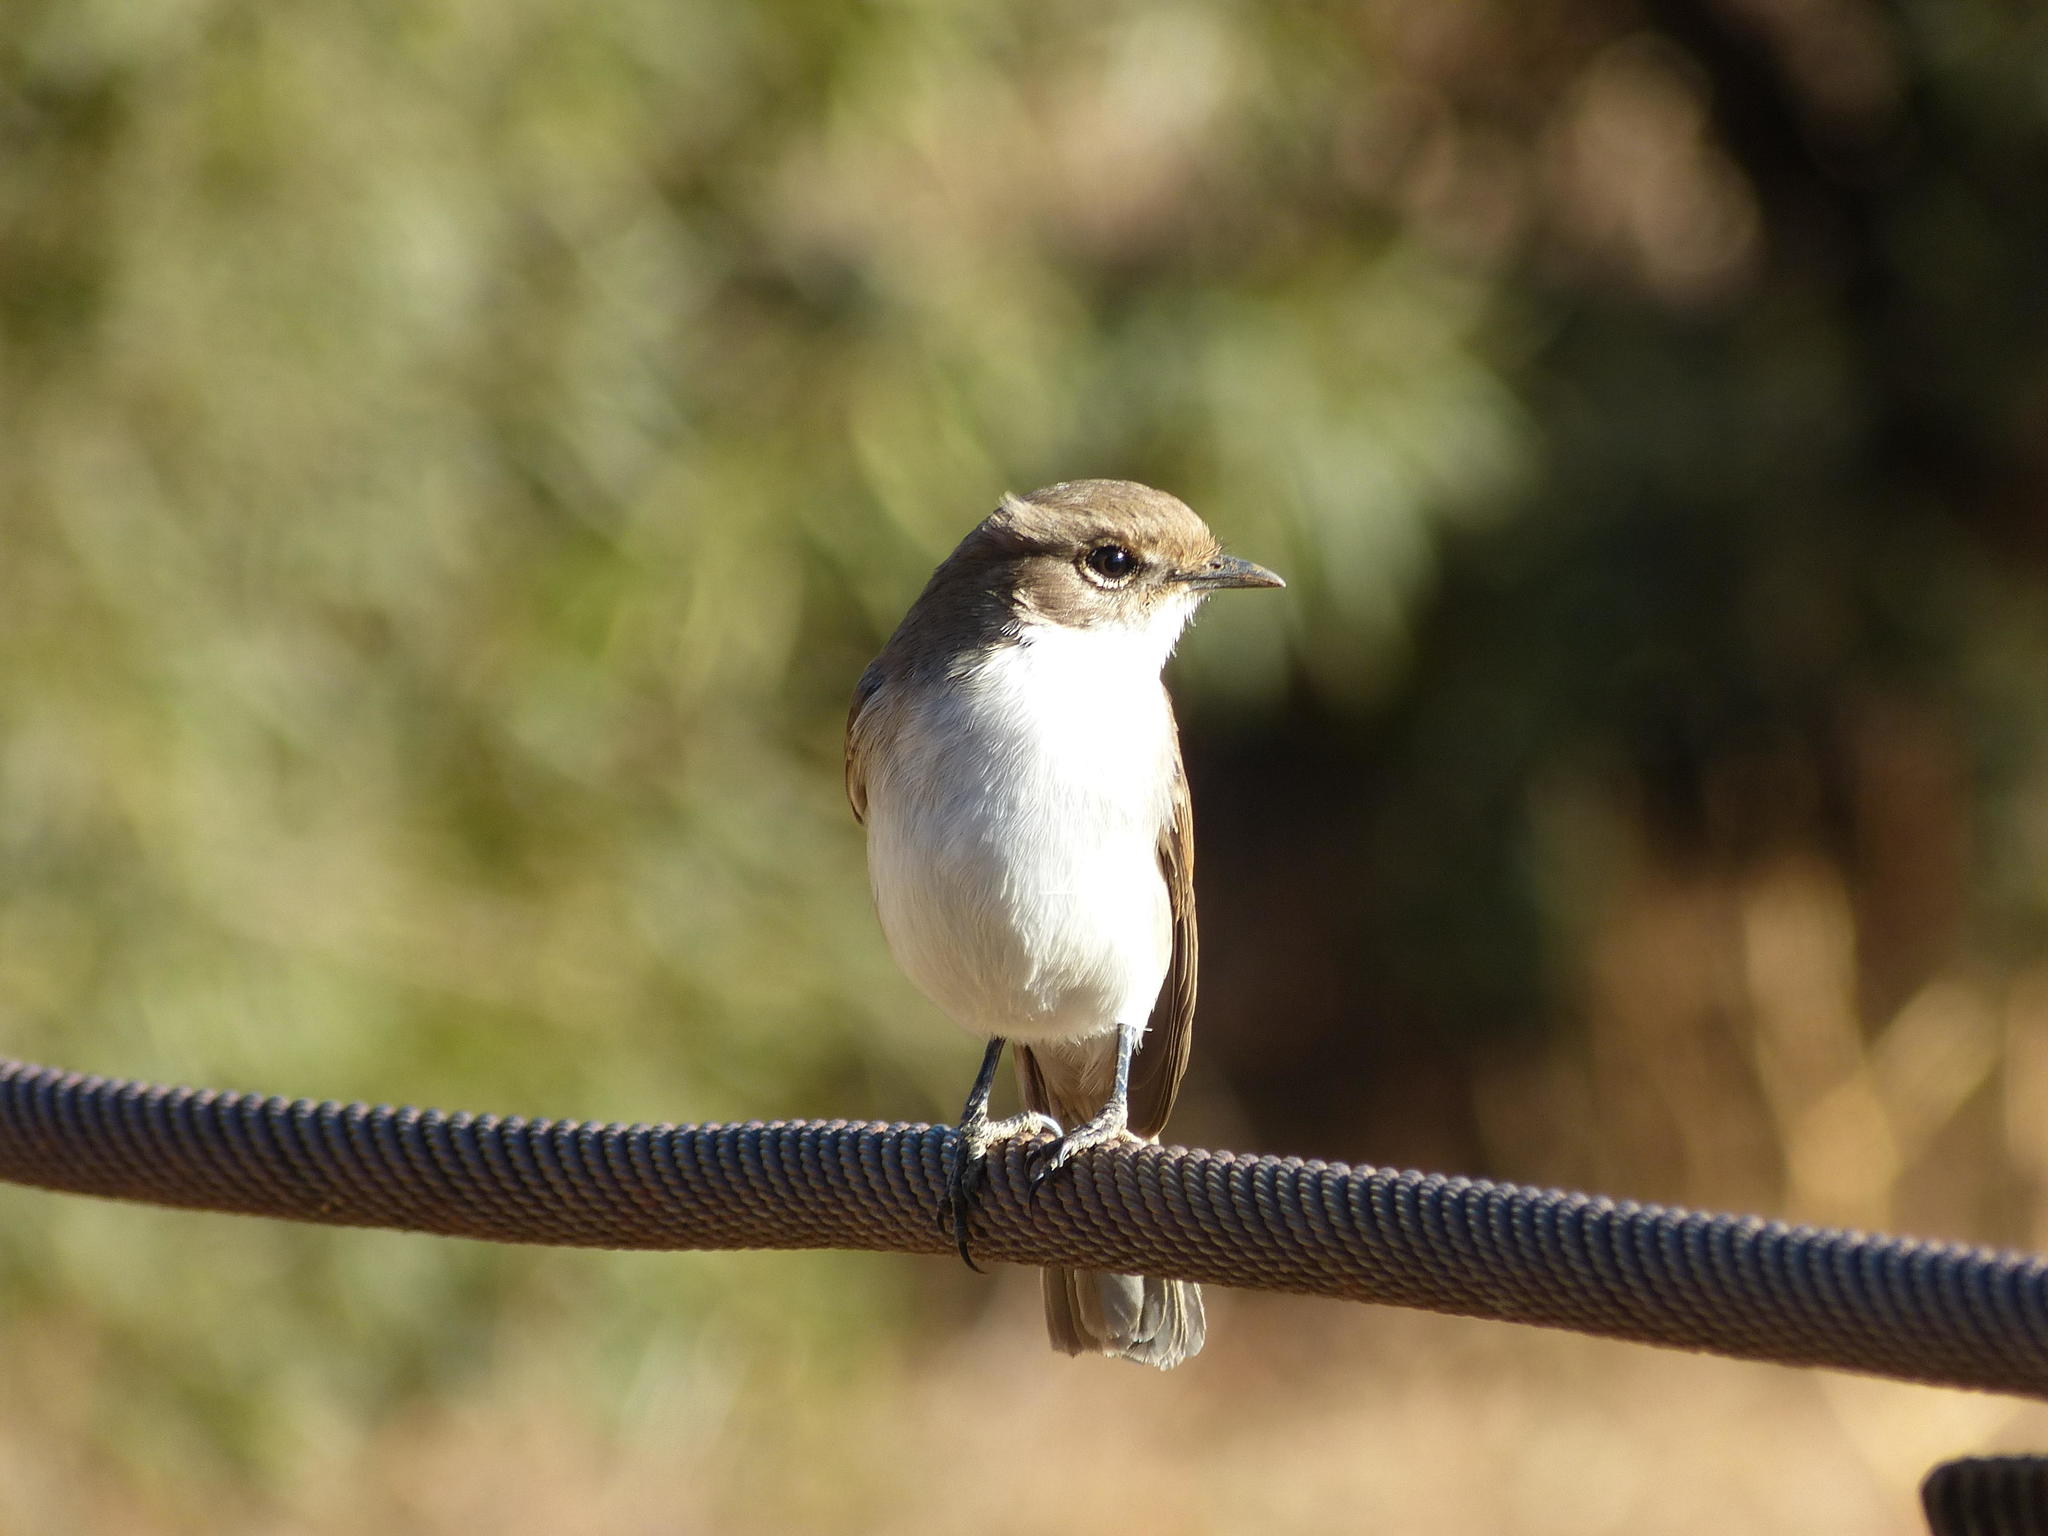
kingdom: Animalia
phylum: Chordata
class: Aves
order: Passeriformes
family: Muscicapidae
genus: Bradornis
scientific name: Bradornis mariquensis
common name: Marico flycatcher
